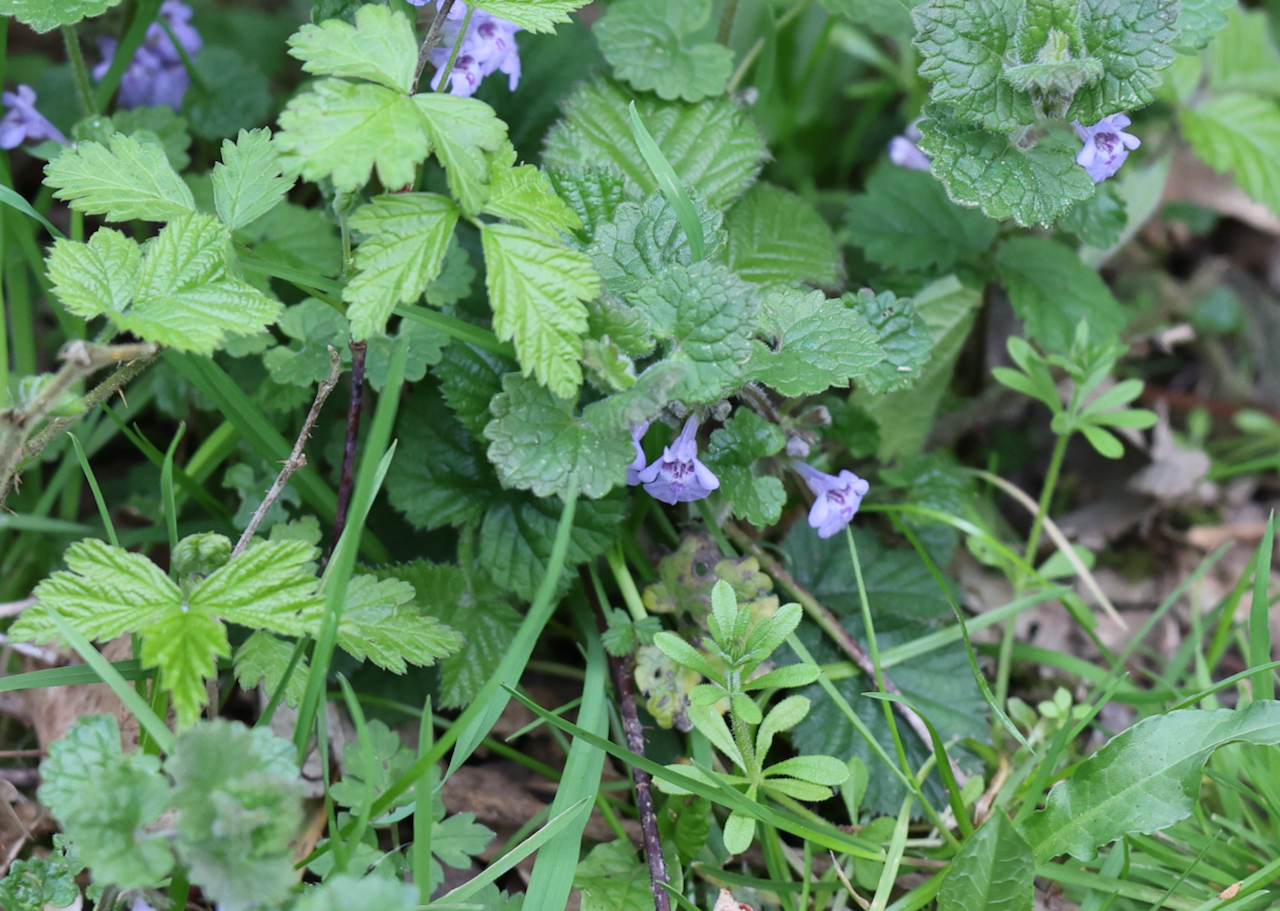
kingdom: Plantae
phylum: Tracheophyta
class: Magnoliopsida
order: Lamiales
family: Lamiaceae
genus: Glechoma
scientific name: Glechoma hederacea
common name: Ground ivy
